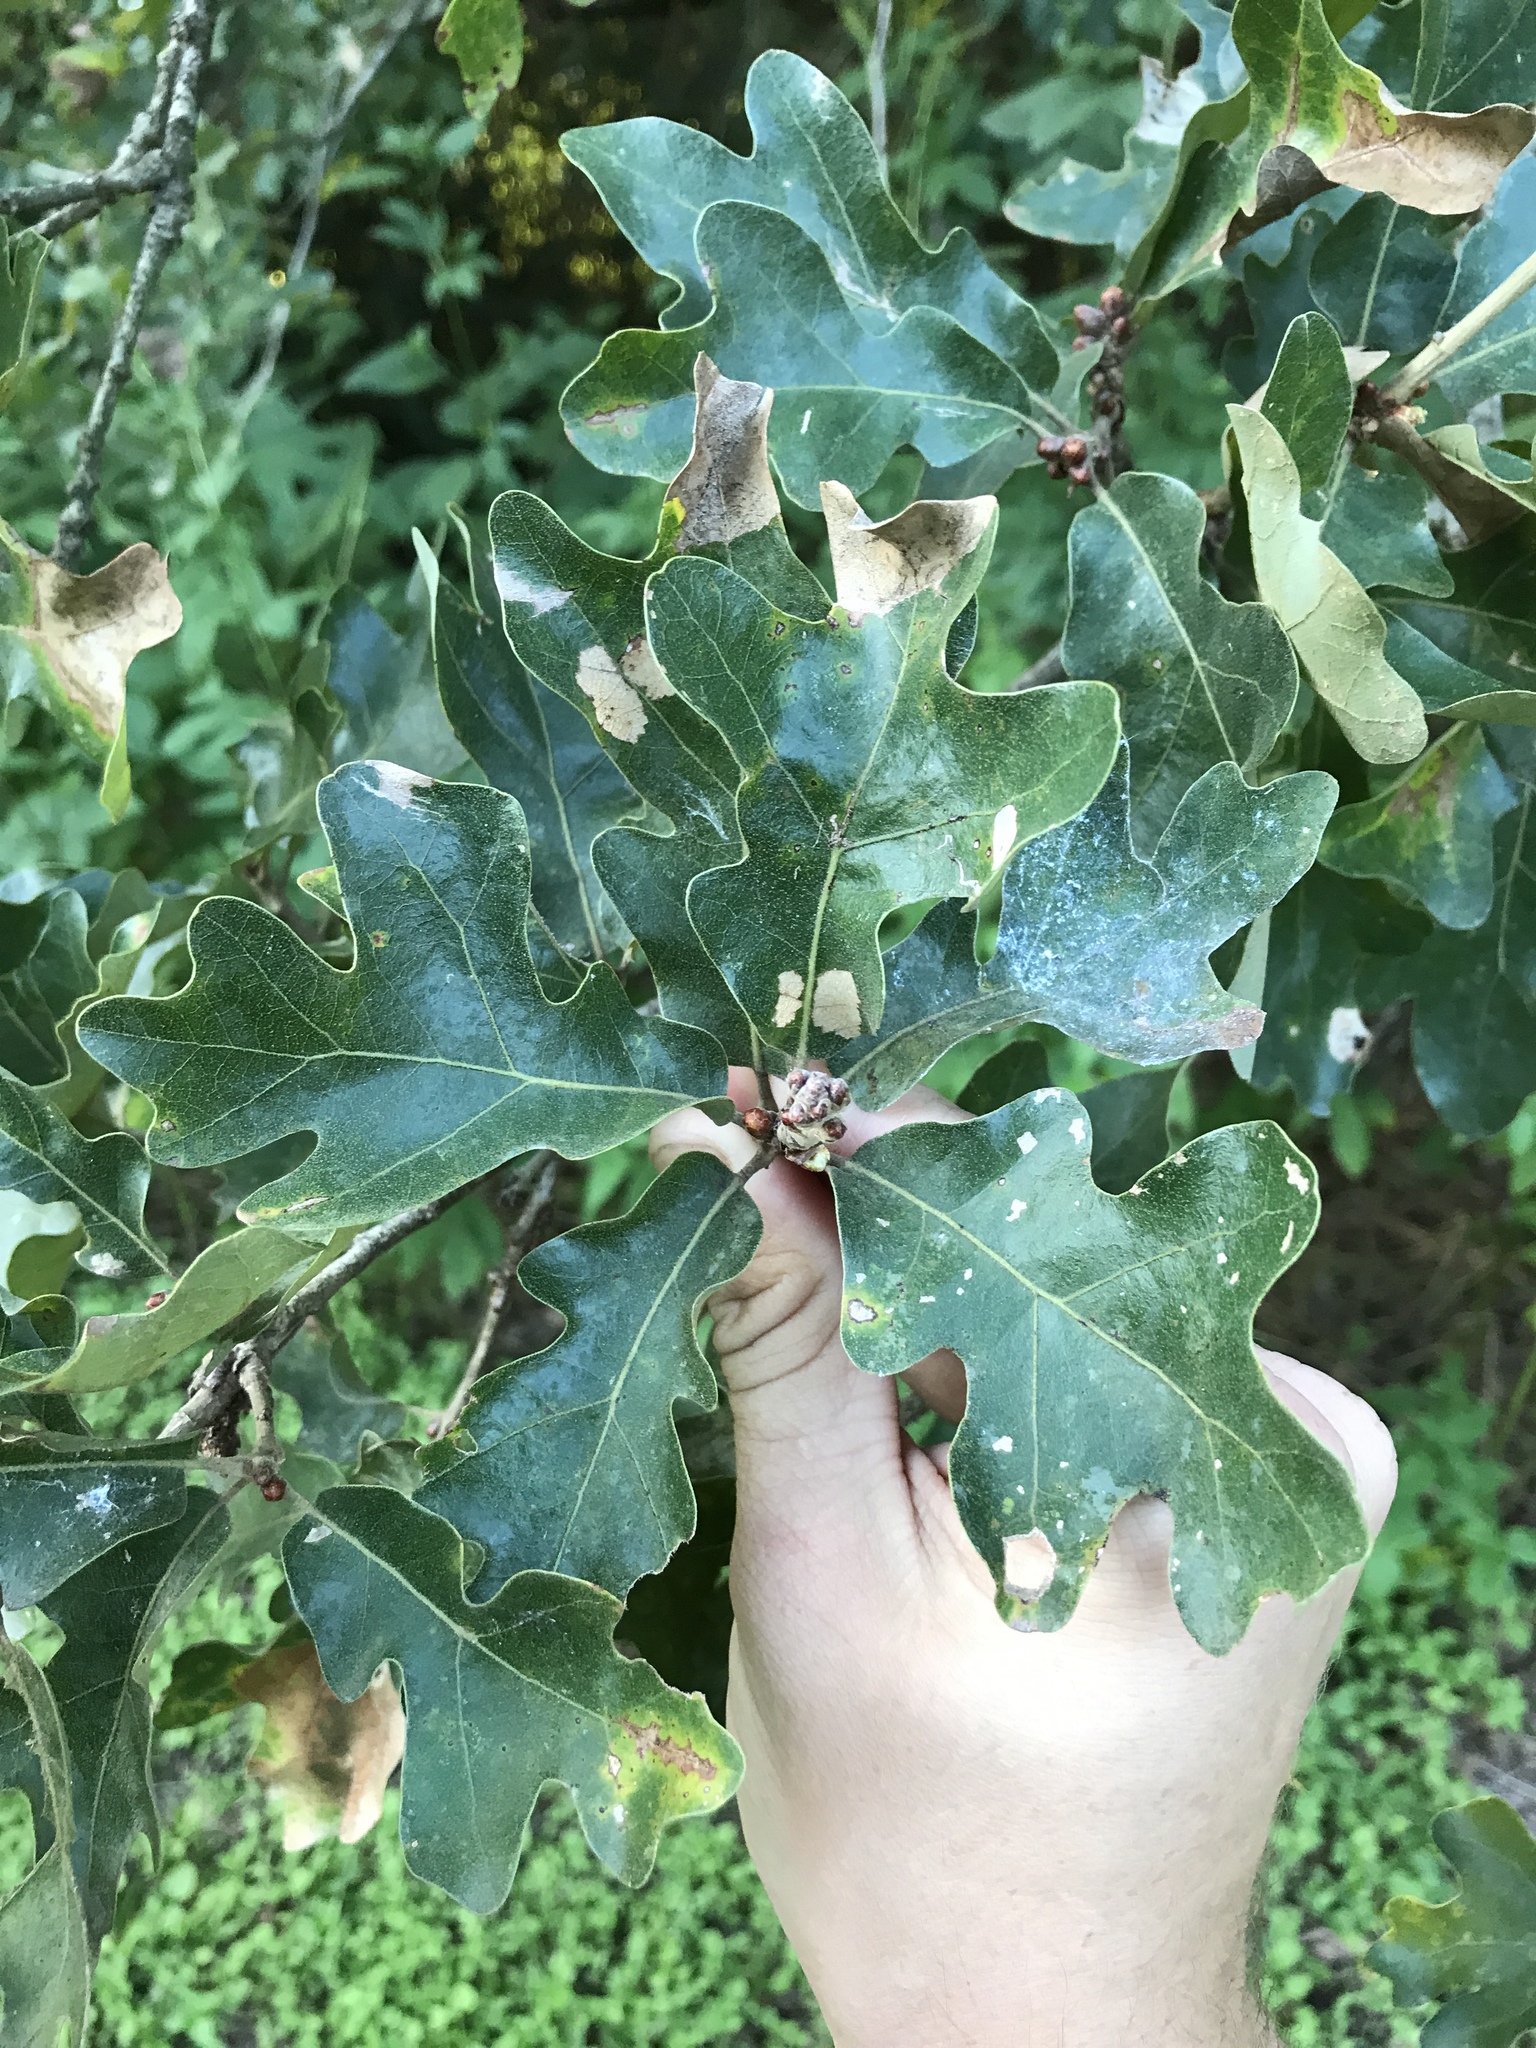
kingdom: Plantae
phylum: Tracheophyta
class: Magnoliopsida
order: Fagales
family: Fagaceae
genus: Quercus
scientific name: Quercus stellata
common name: Post oak
